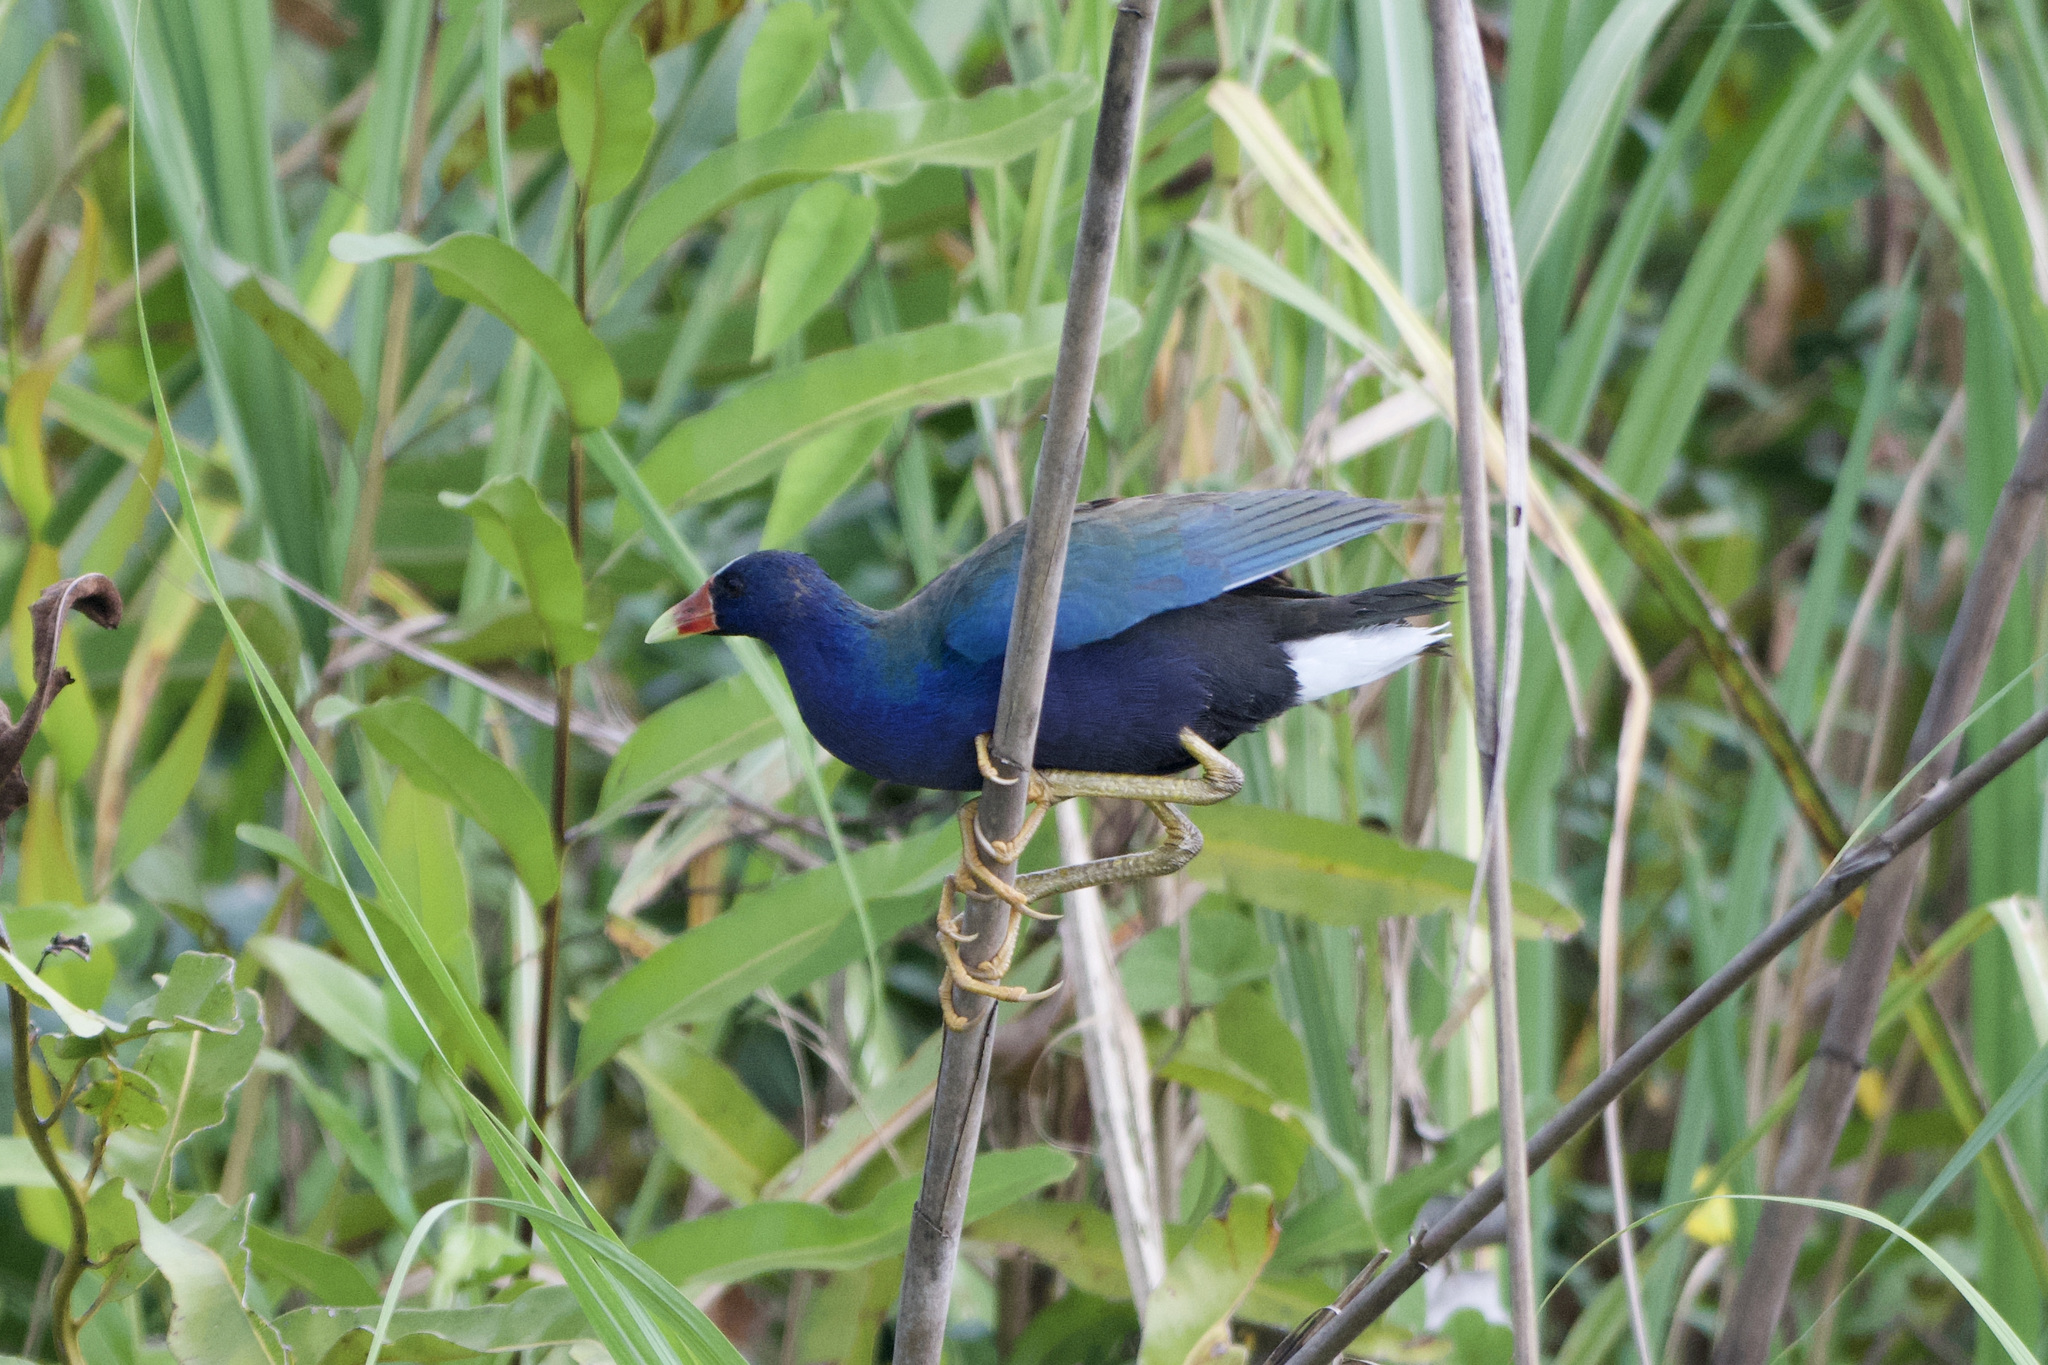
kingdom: Animalia
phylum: Chordata
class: Aves
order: Gruiformes
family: Rallidae
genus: Porphyrio
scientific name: Porphyrio martinica
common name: Purple gallinule
